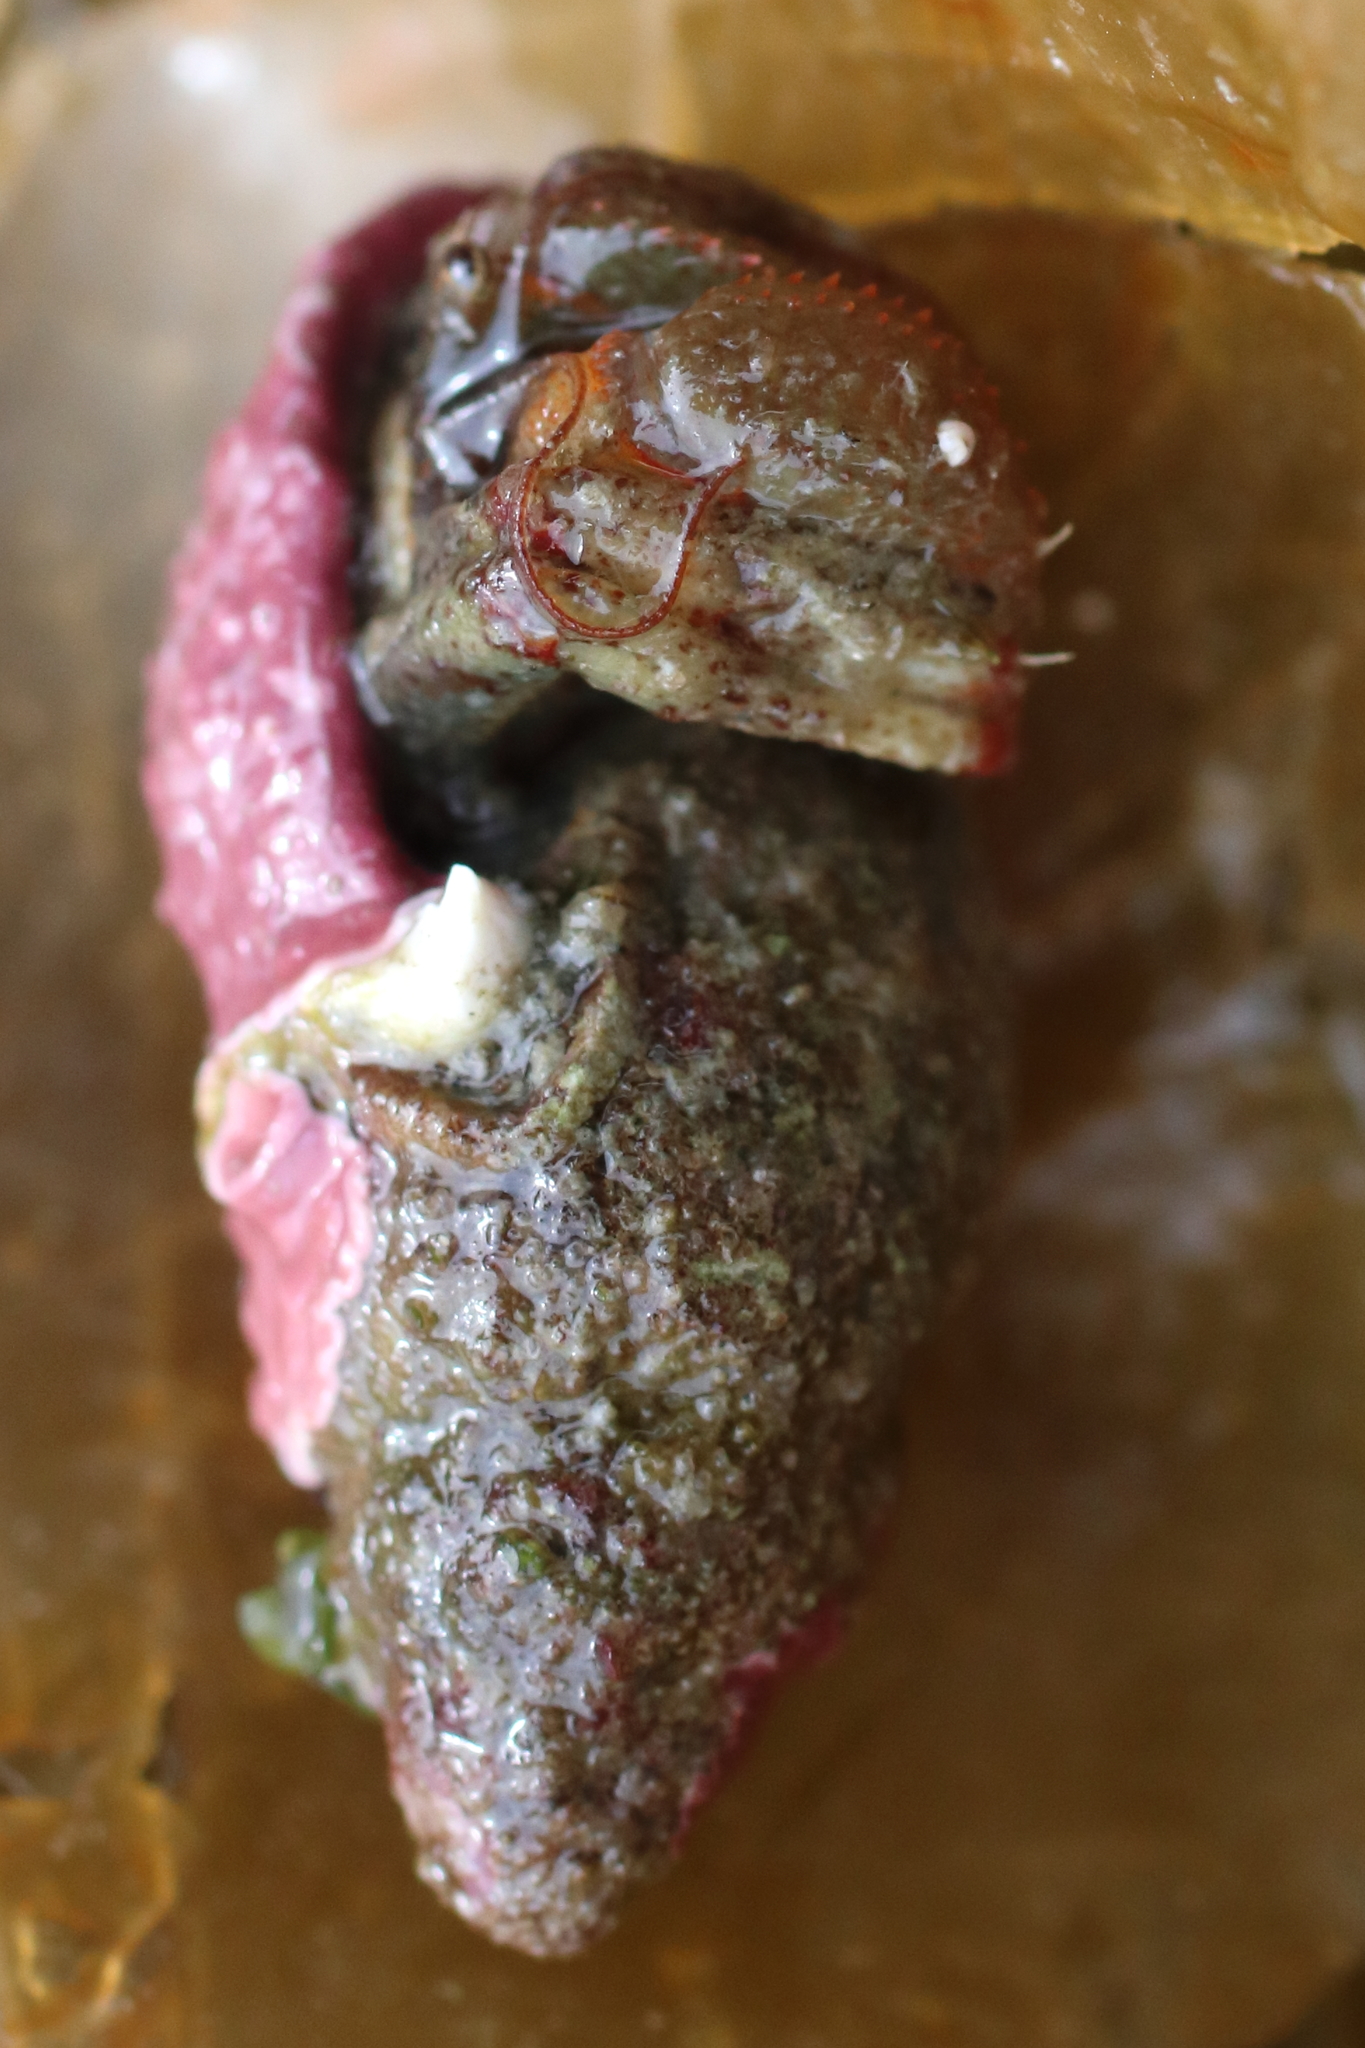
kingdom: Animalia
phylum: Arthropoda
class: Malacostraca
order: Decapoda
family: Paguridae
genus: Pagurus
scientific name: Pagurus beringanus
